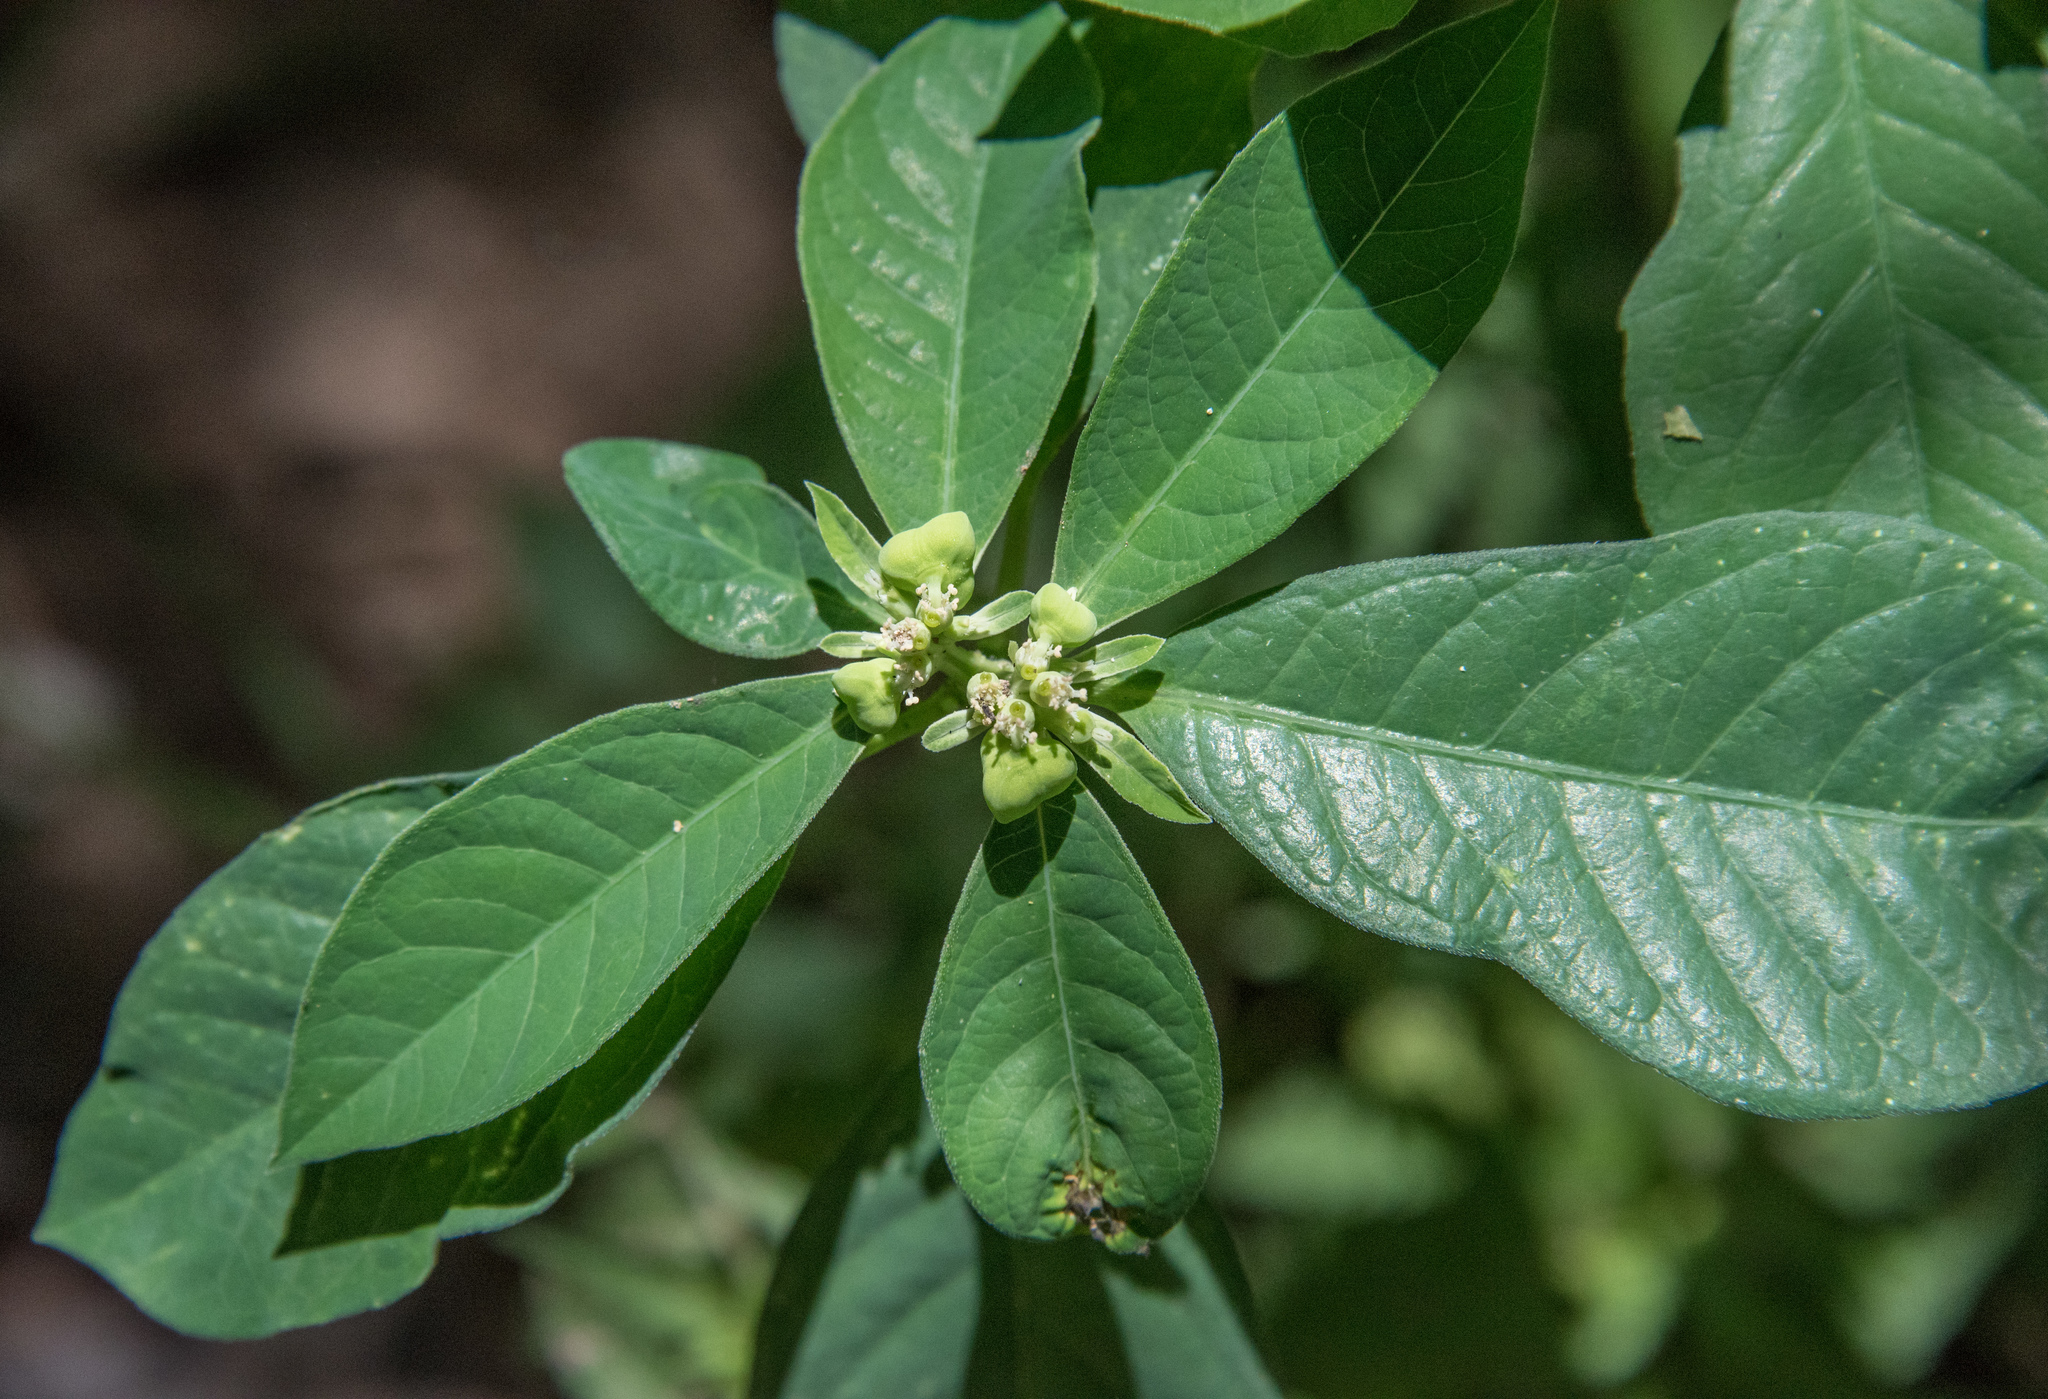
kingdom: Plantae
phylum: Tracheophyta
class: Magnoliopsida
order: Malpighiales
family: Euphorbiaceae
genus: Euphorbia
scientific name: Euphorbia heterophylla
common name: Mexican fireplant
